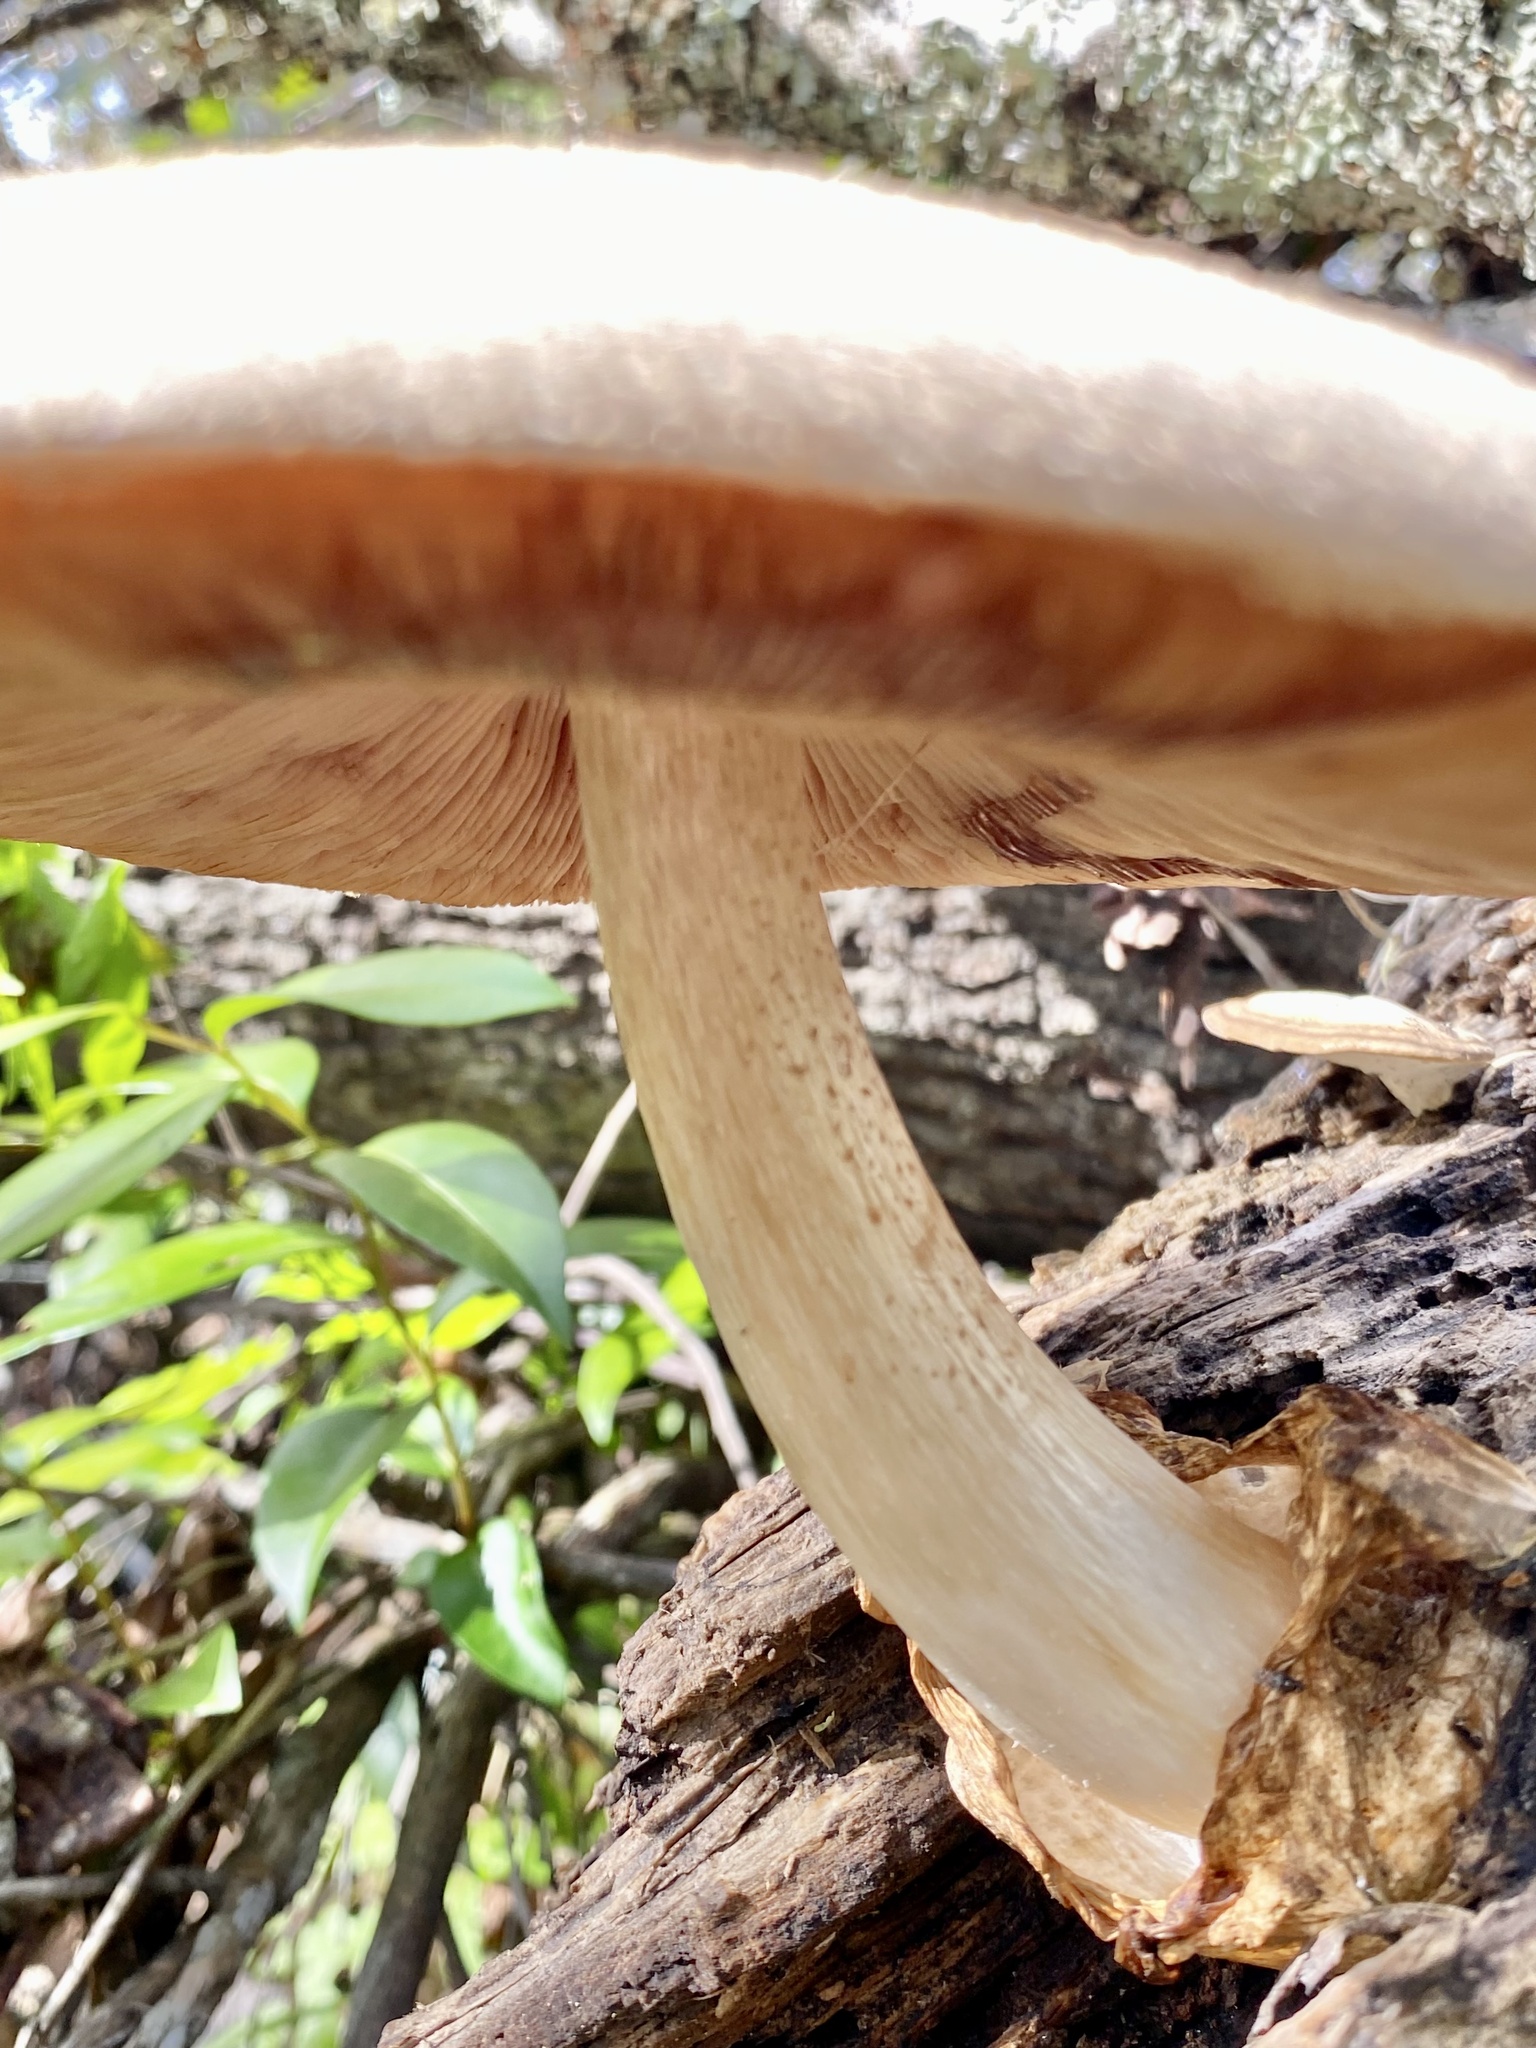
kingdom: Fungi
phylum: Basidiomycota
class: Agaricomycetes
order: Agaricales
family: Pluteaceae
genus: Volvariella
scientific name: Volvariella bombycina
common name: Silky rosegill
